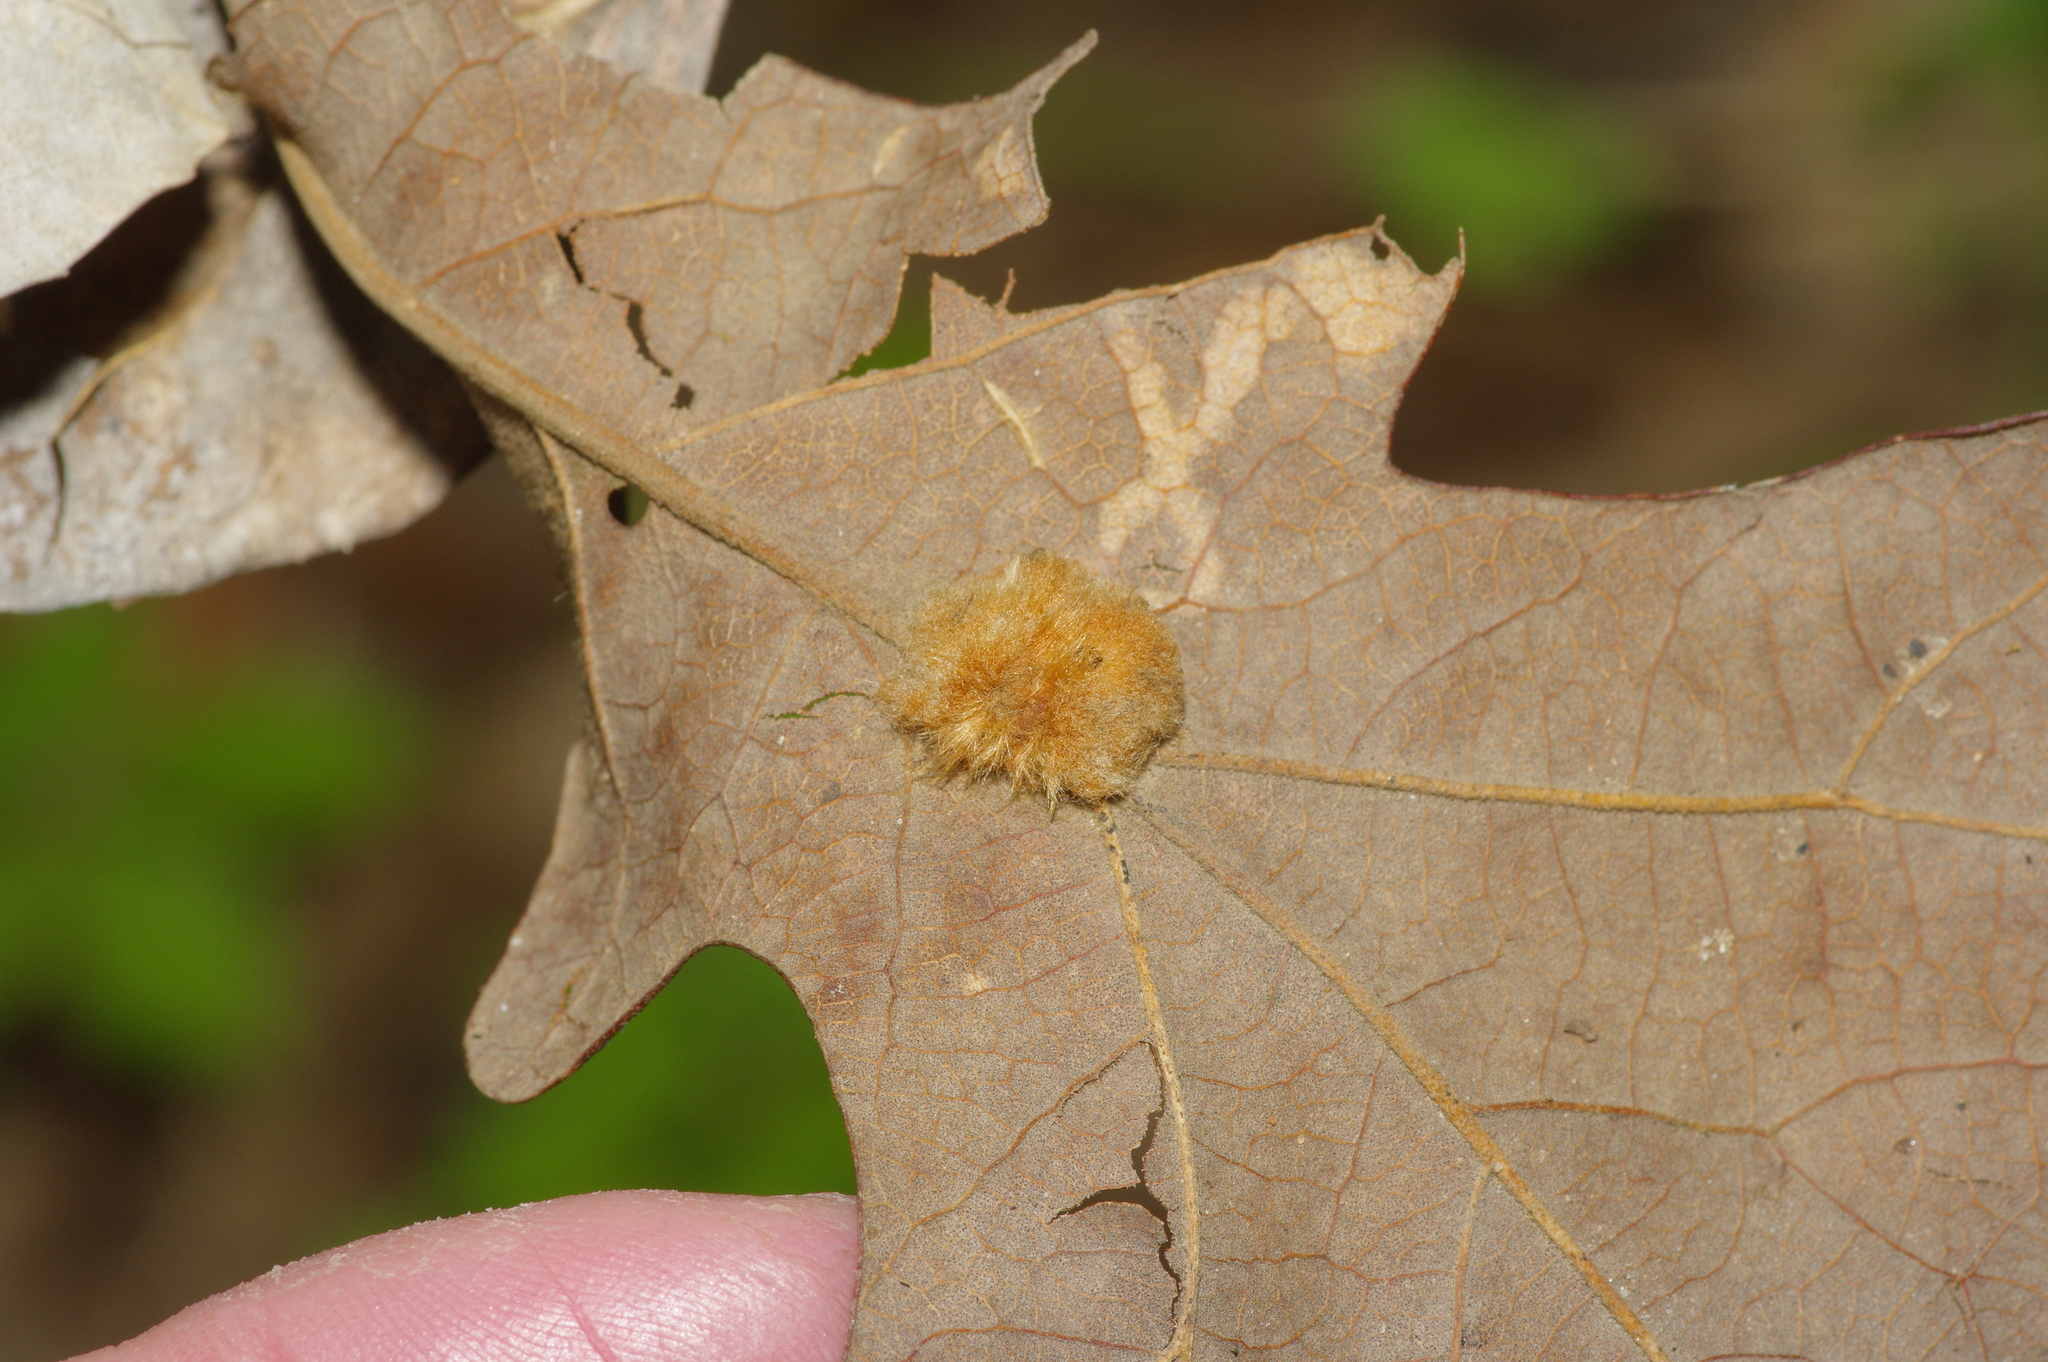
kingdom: Animalia
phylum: Arthropoda
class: Insecta
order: Hymenoptera
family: Cynipidae
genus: Andricus
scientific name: Andricus Druon pattoni
